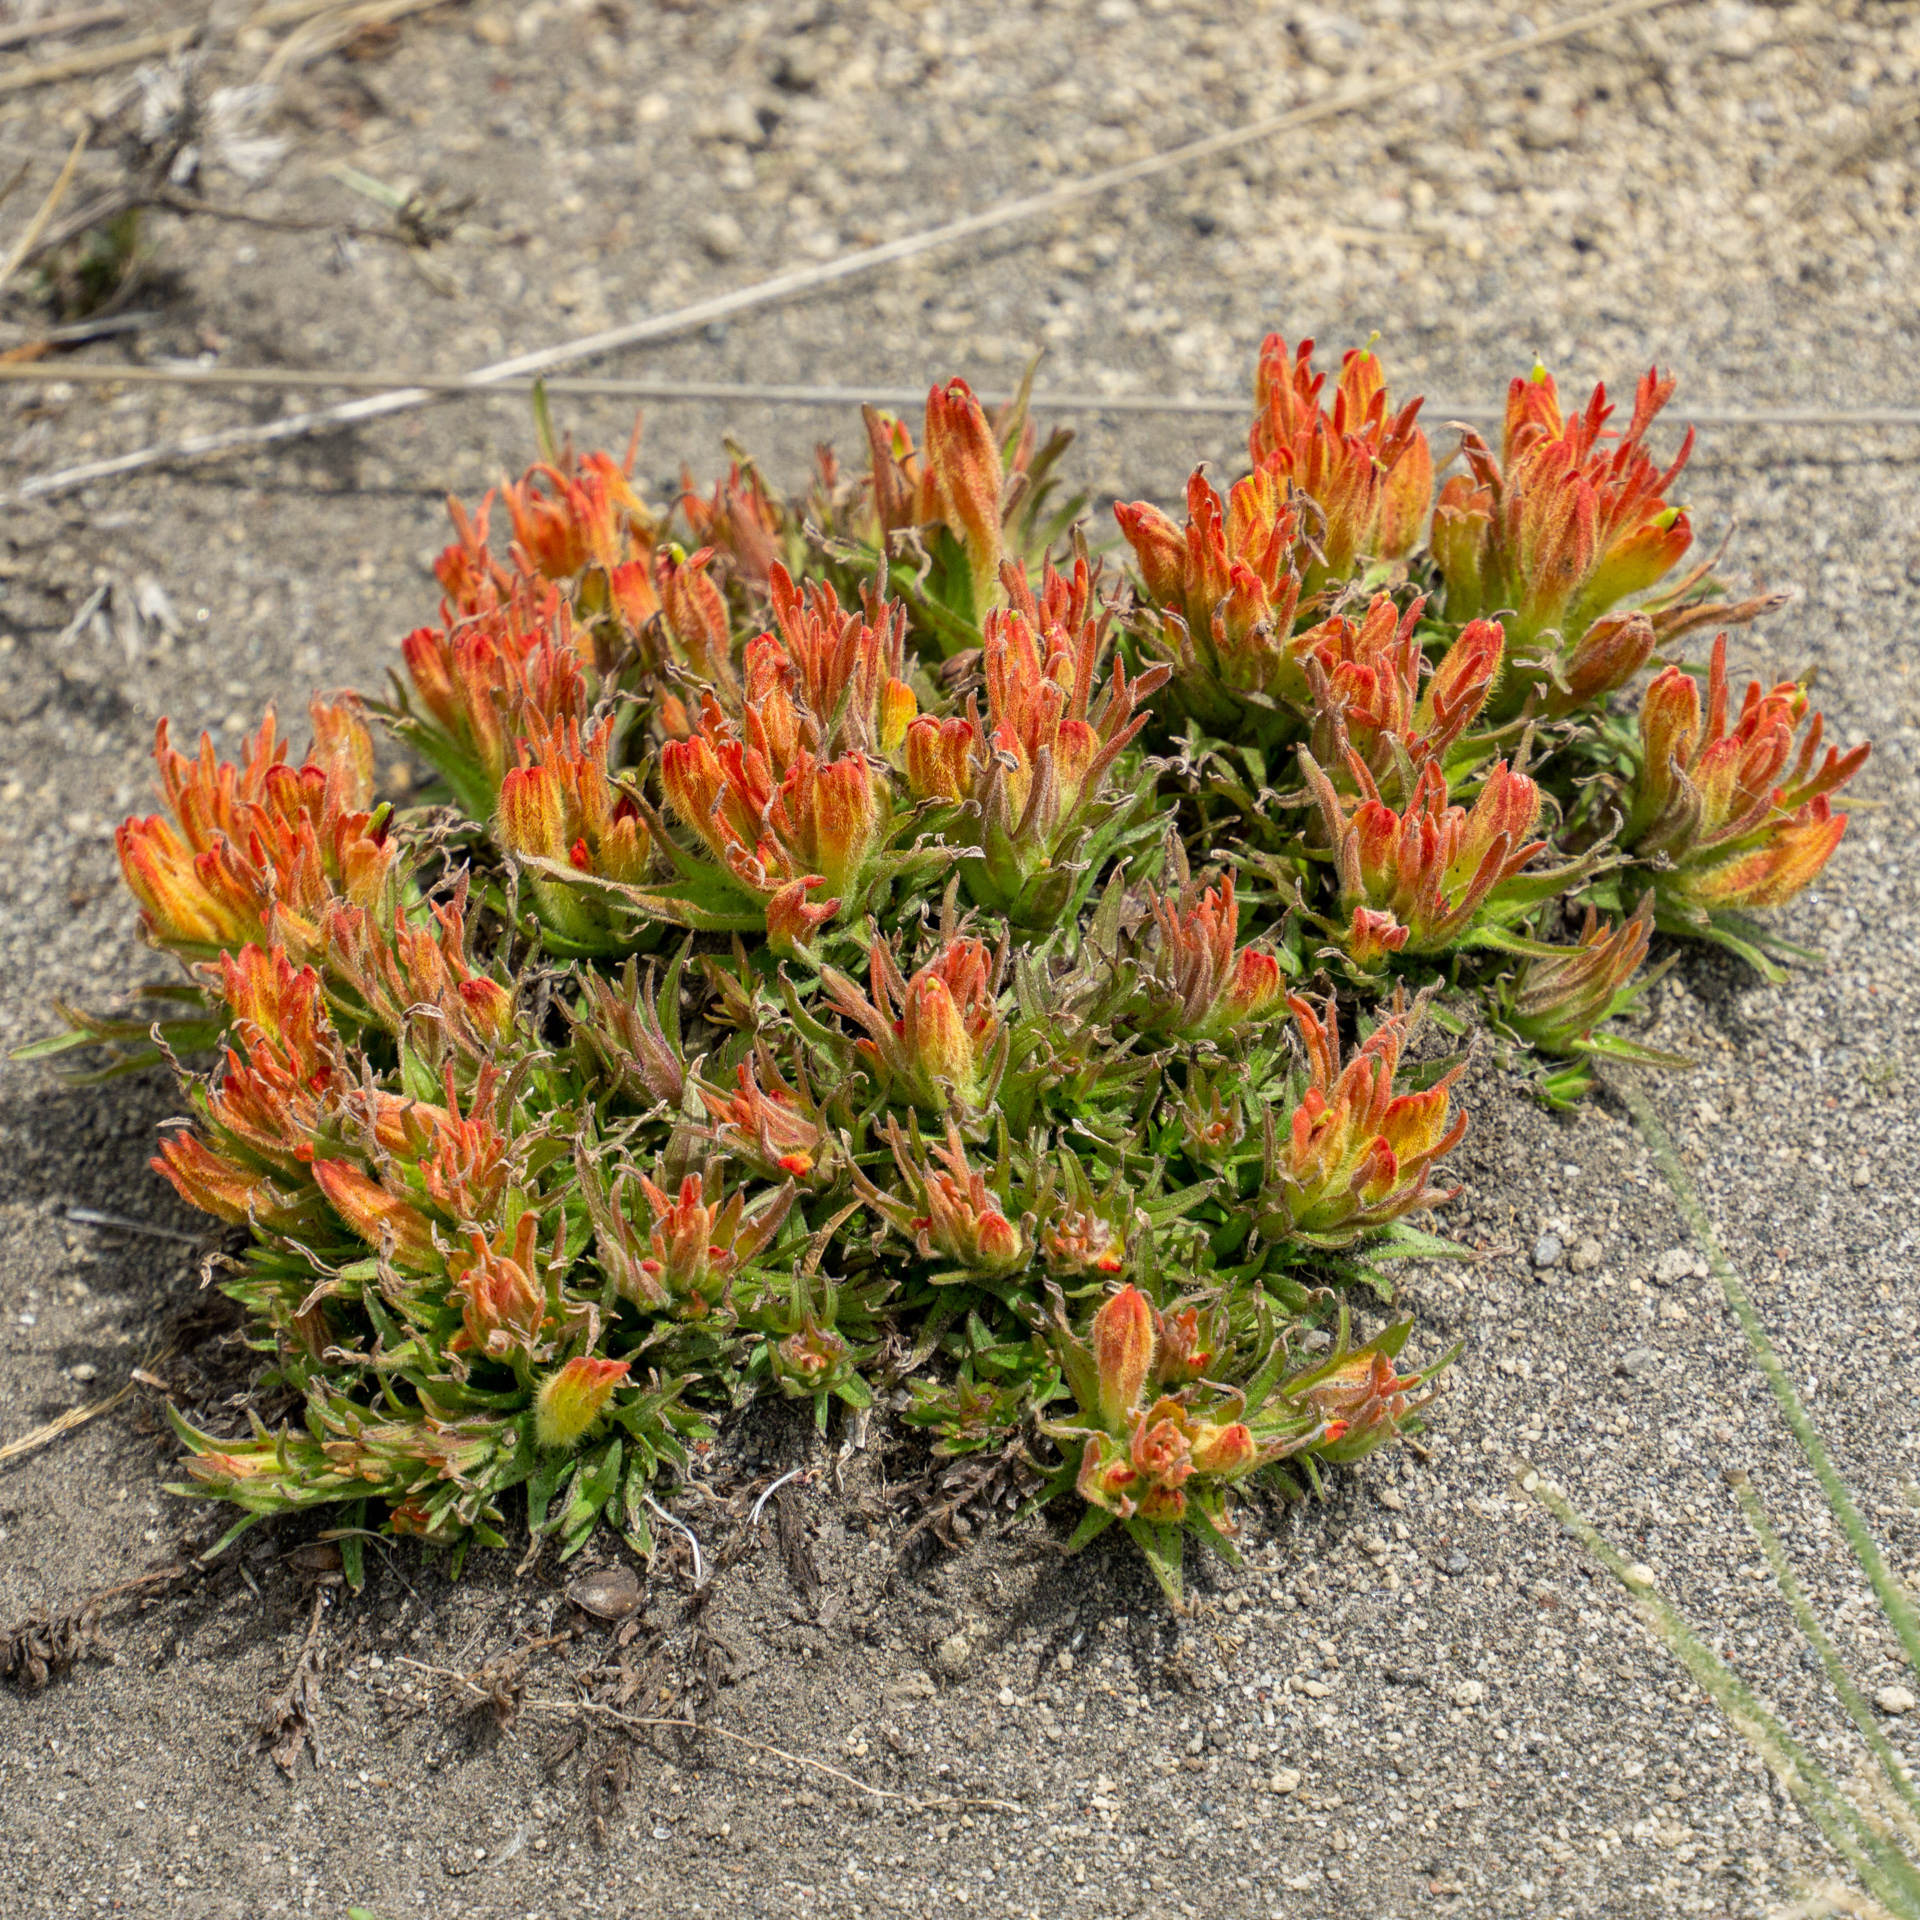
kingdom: Plantae
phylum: Tracheophyta
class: Magnoliopsida
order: Lamiales
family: Orobanchaceae
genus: Castilleja
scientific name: Castilleja moranensis
